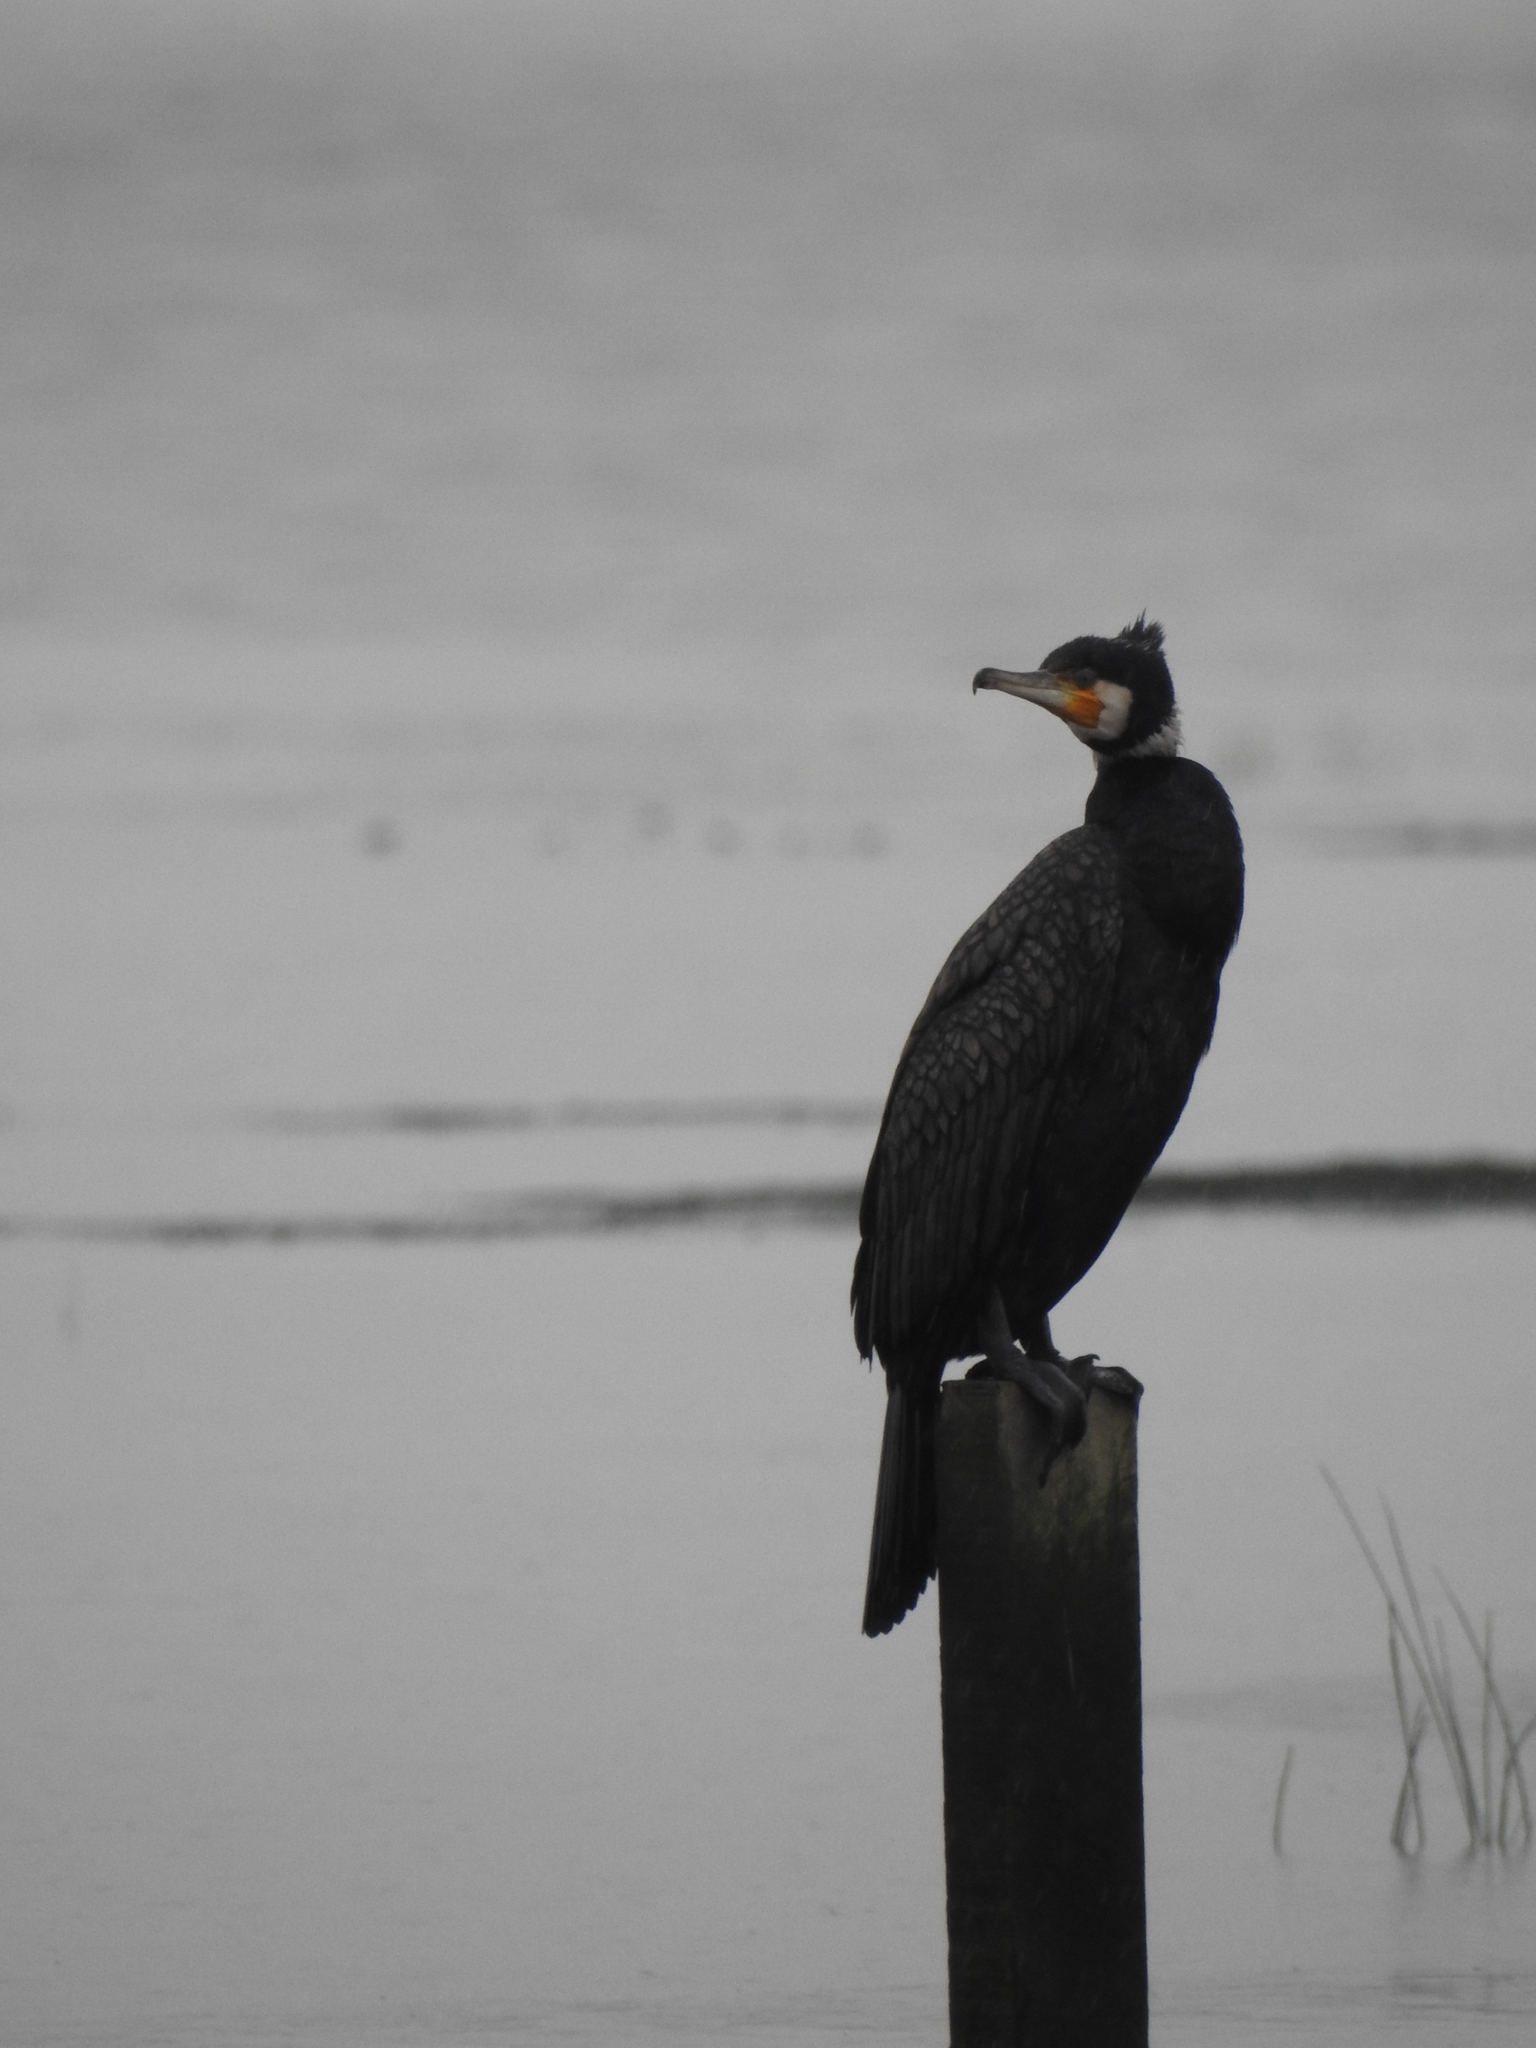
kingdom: Animalia
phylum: Chordata
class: Aves
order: Suliformes
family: Phalacrocoracidae
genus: Phalacrocorax
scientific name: Phalacrocorax carbo
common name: Great cormorant
